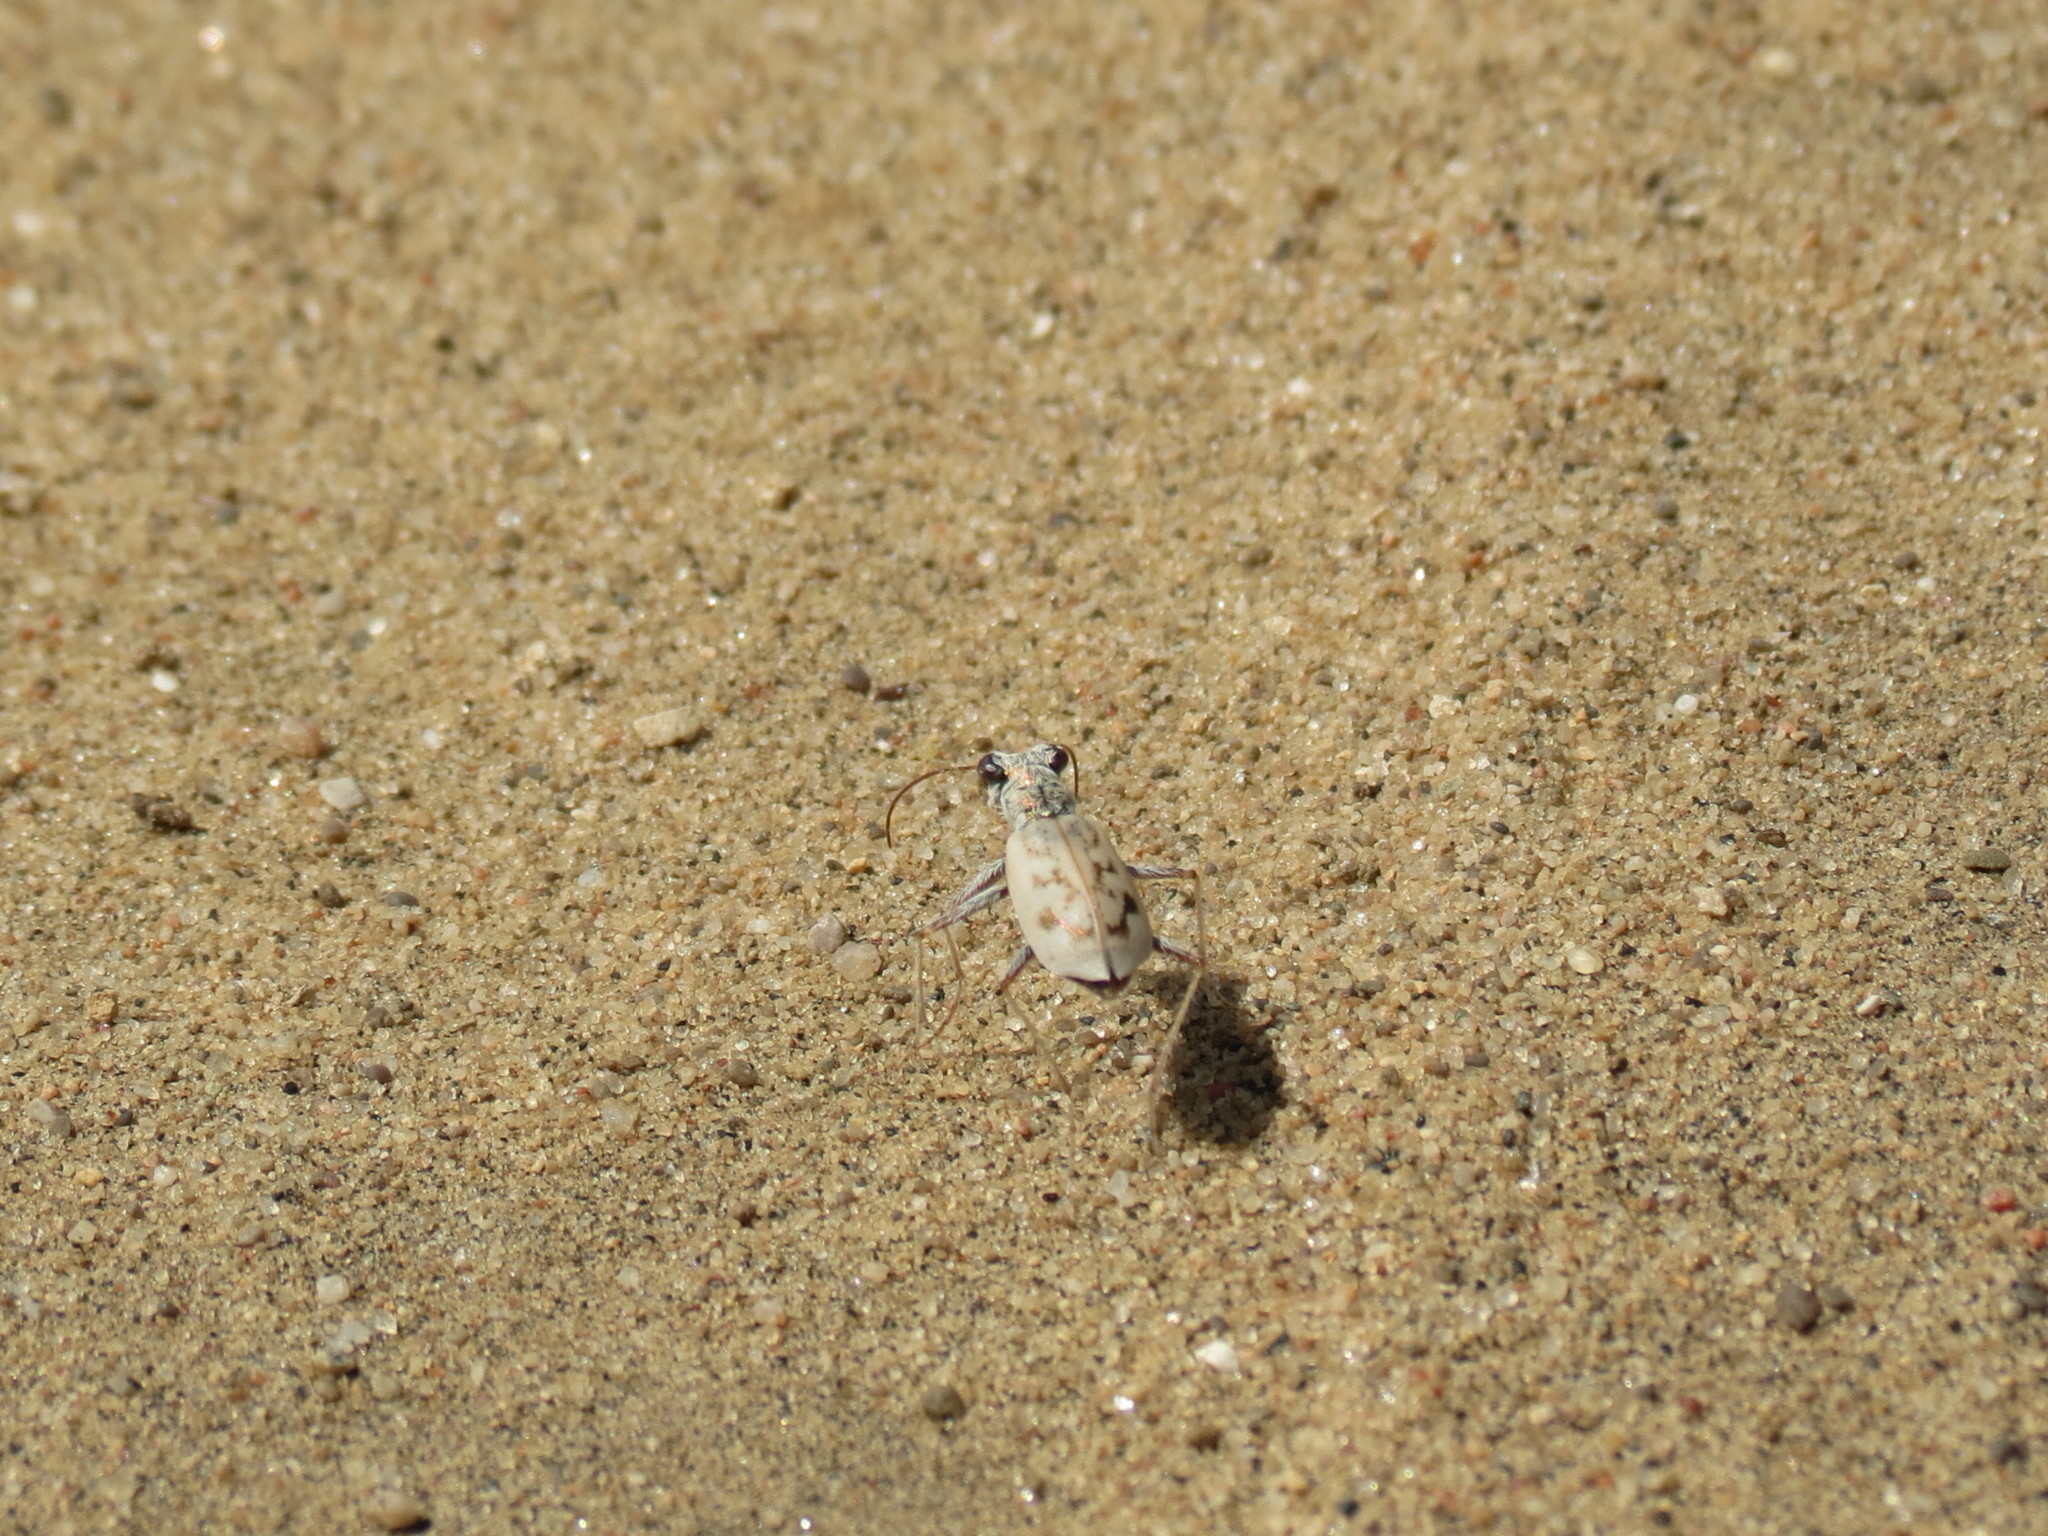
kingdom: Animalia
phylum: Arthropoda
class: Insecta
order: Coleoptera
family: Carabidae
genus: Ellipsoptera
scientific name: Ellipsoptera lepida
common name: Ghost tiger beetle
